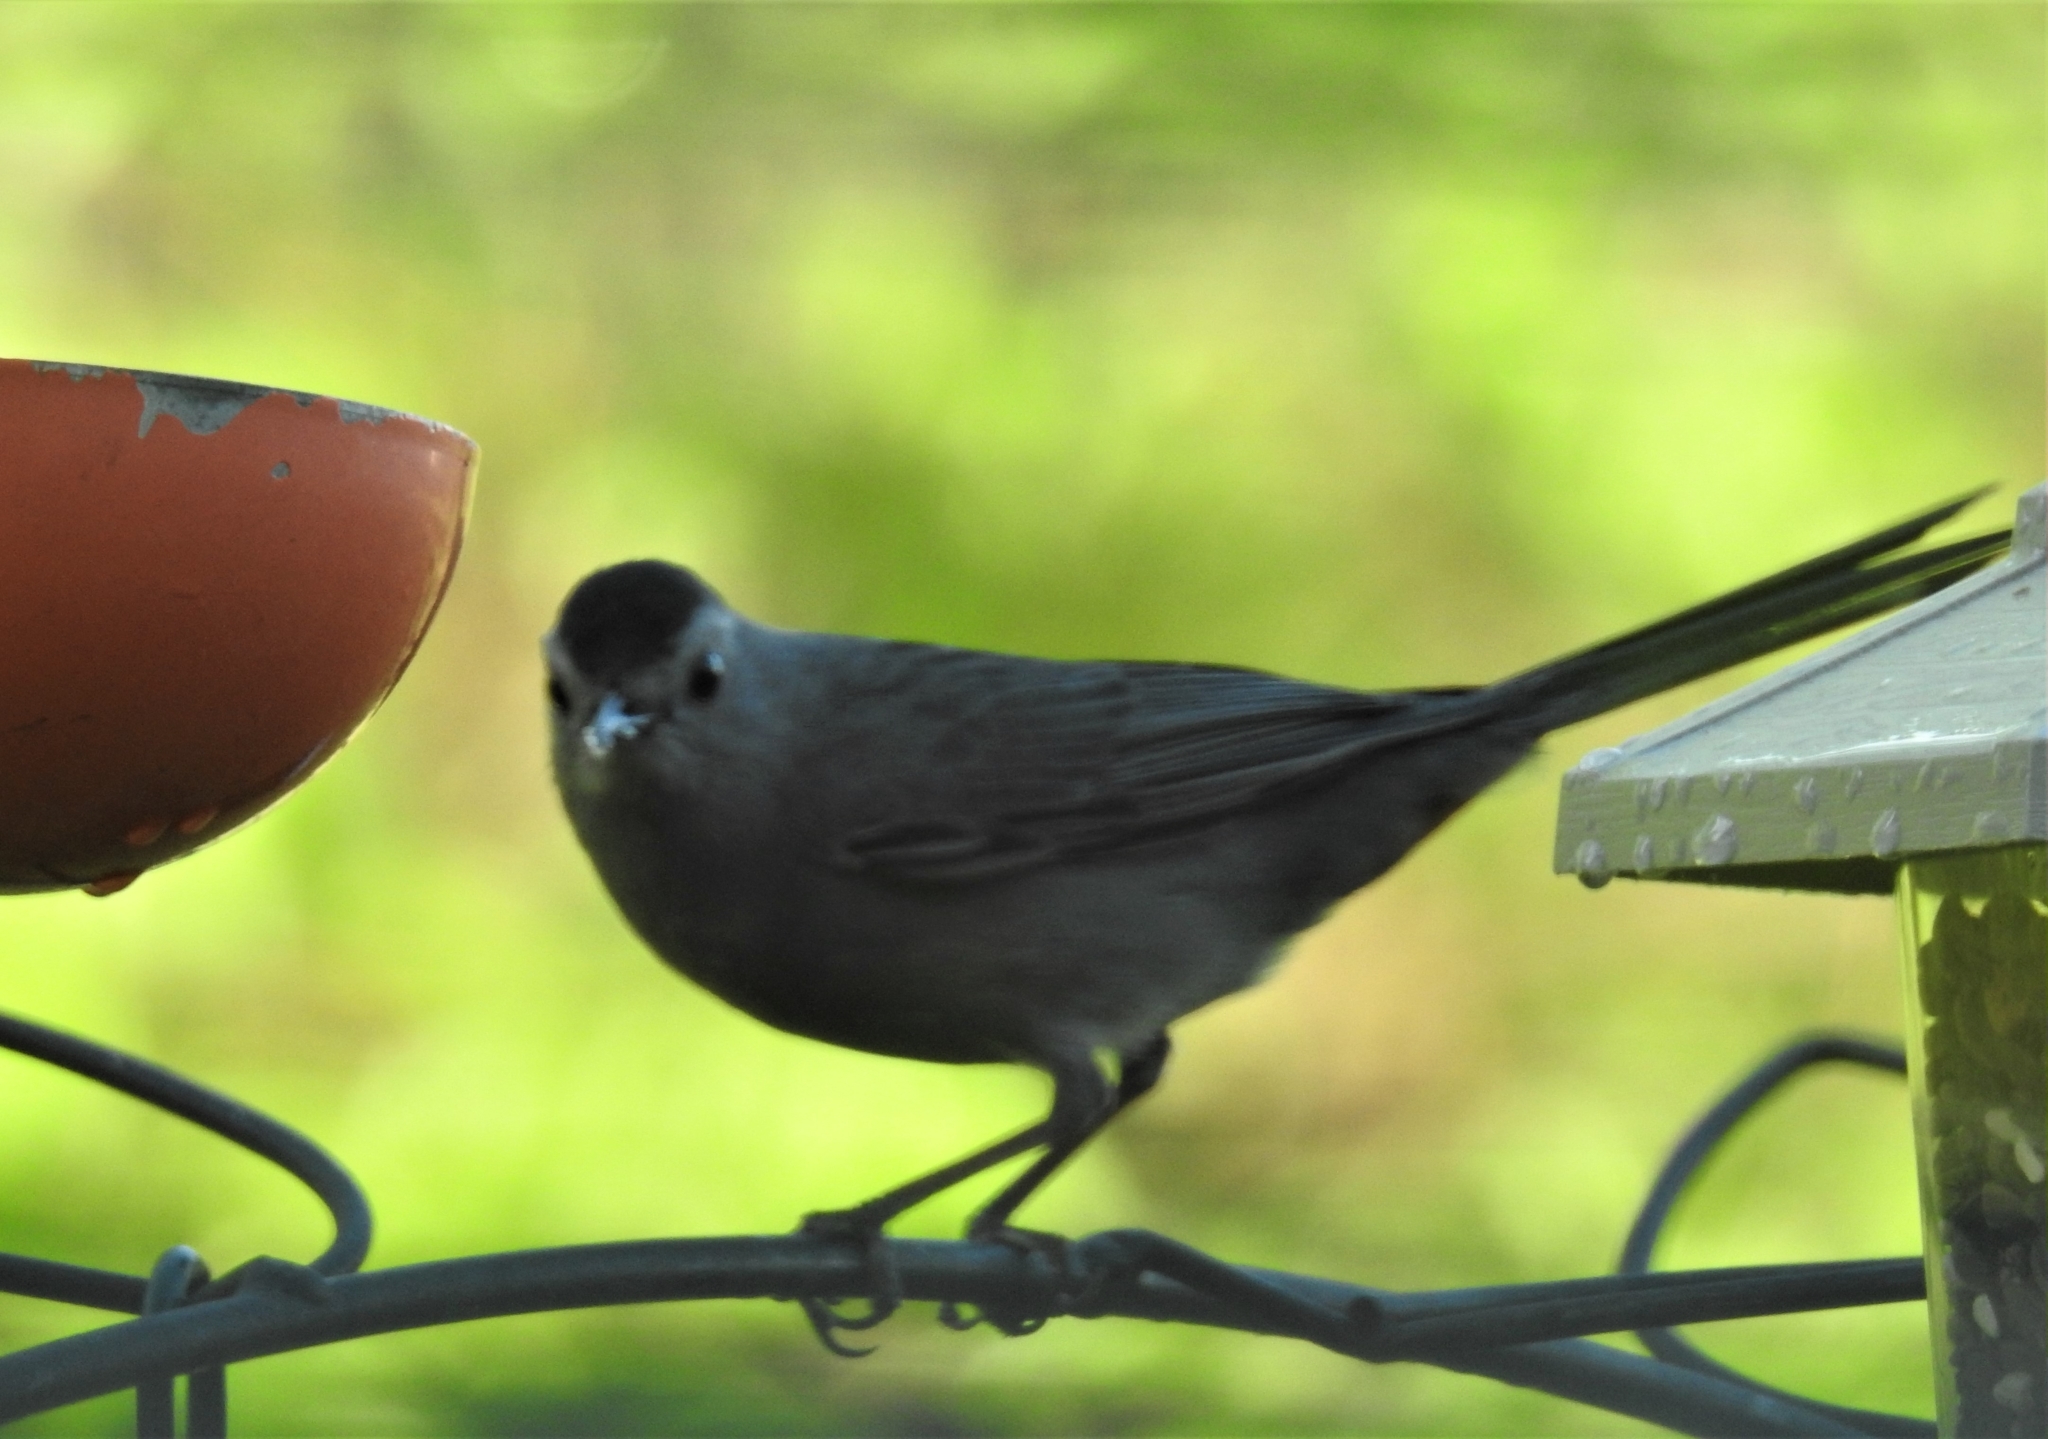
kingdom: Animalia
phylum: Chordata
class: Aves
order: Passeriformes
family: Mimidae
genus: Dumetella
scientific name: Dumetella carolinensis
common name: Gray catbird
